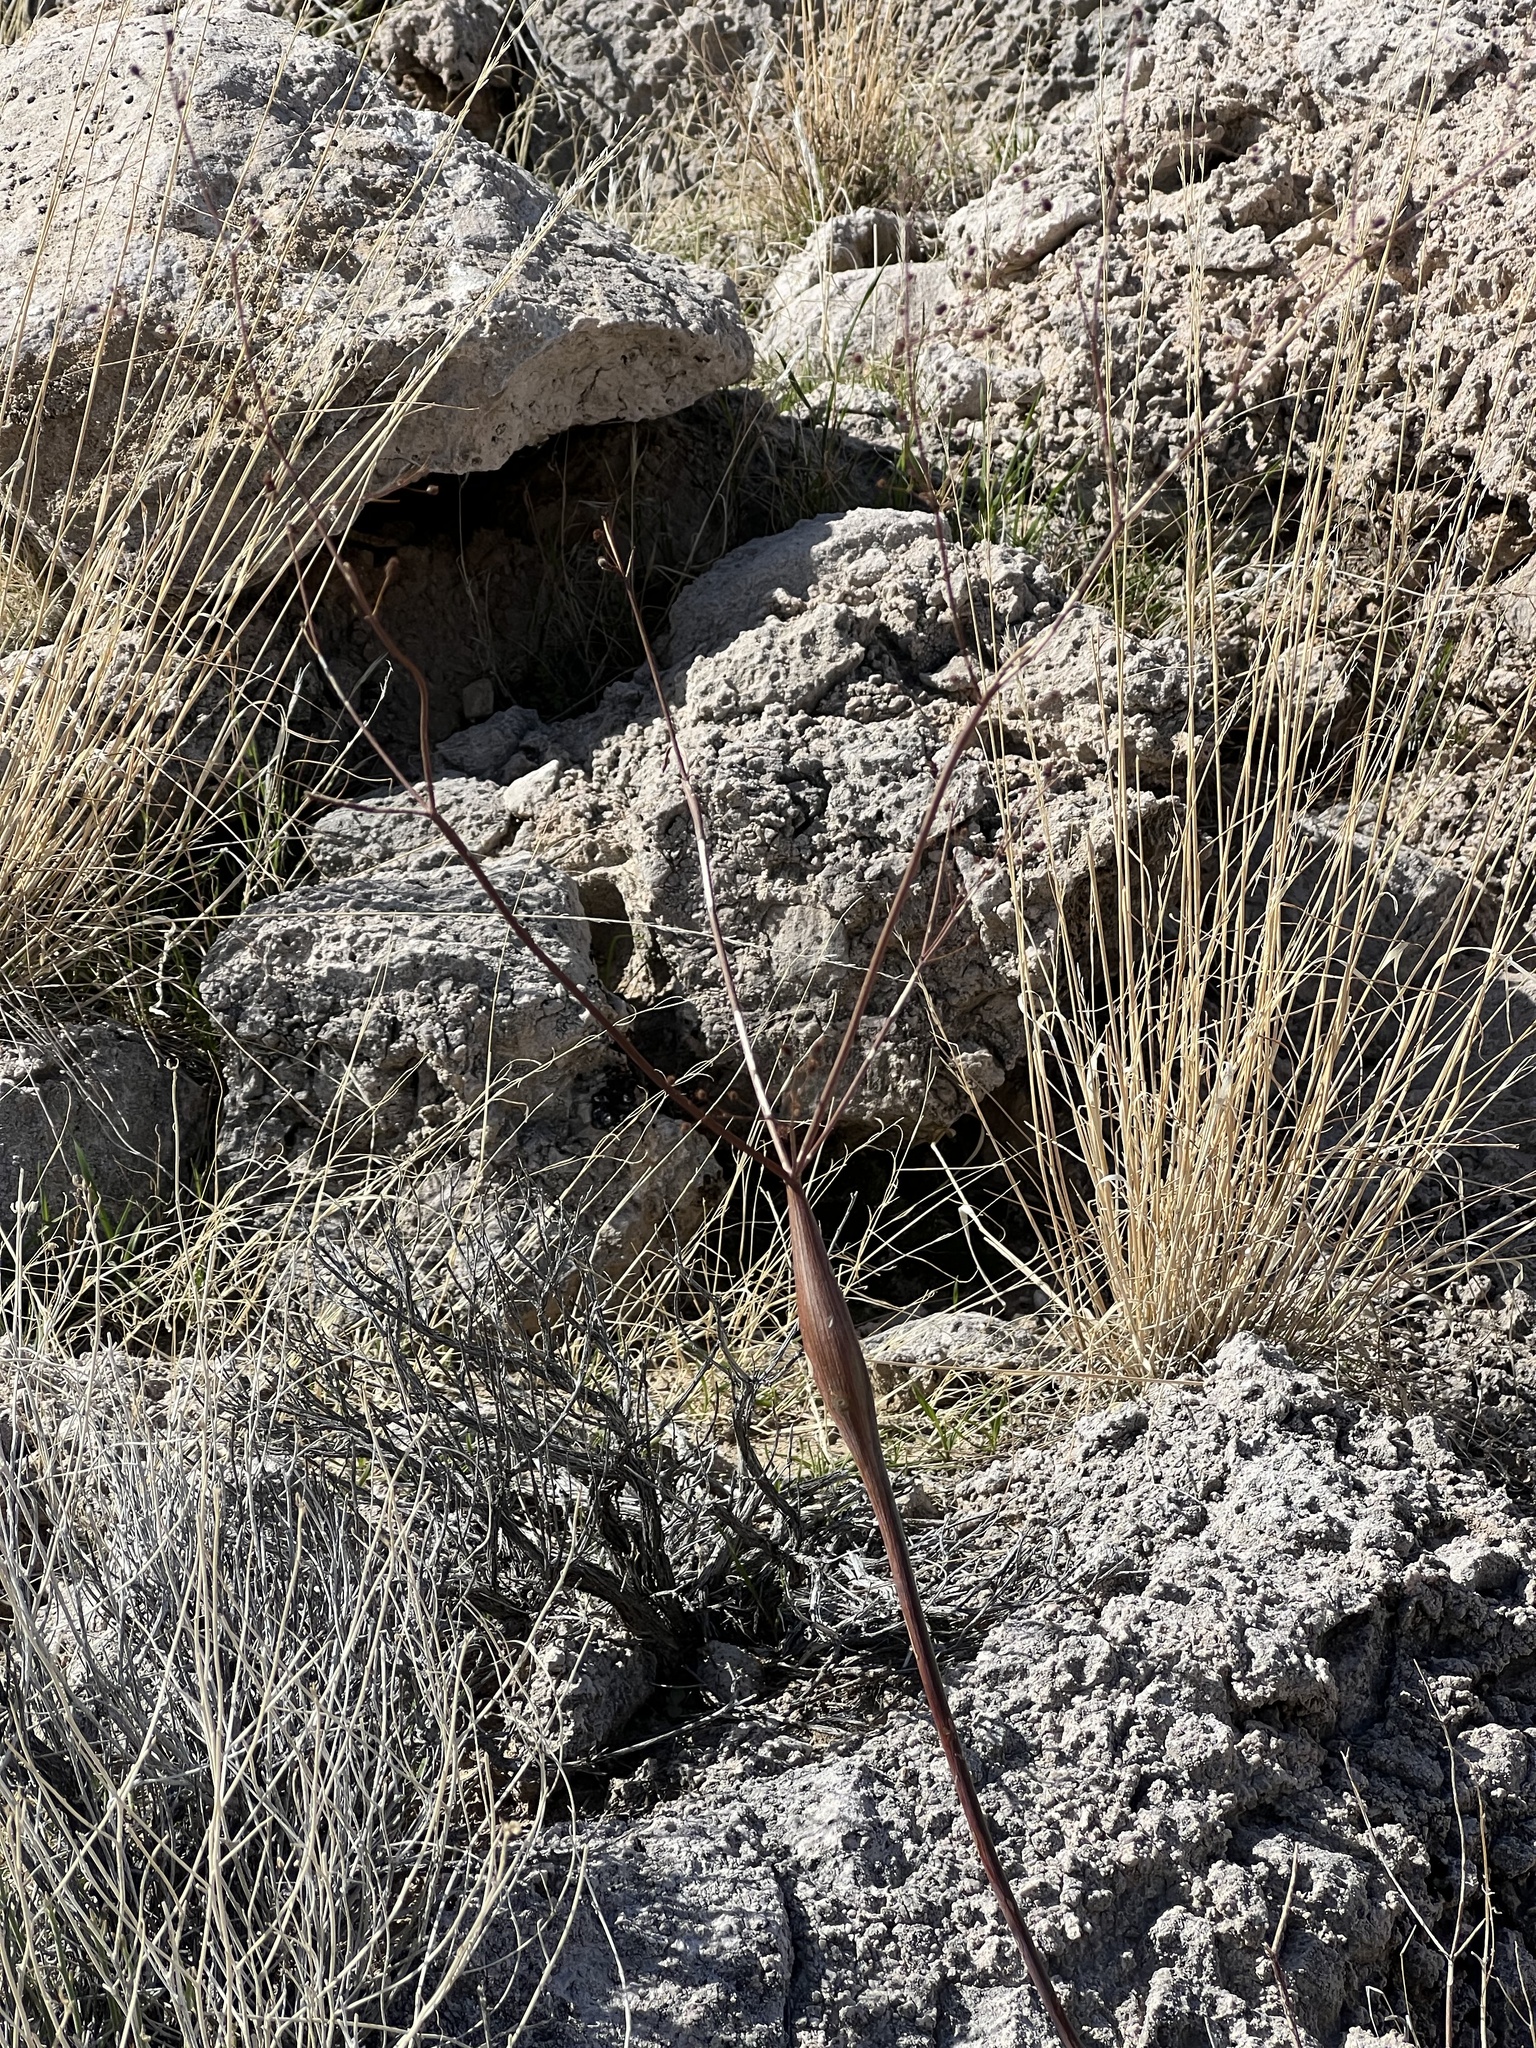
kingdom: Plantae
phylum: Tracheophyta
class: Magnoliopsida
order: Caryophyllales
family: Polygonaceae
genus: Eriogonum
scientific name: Eriogonum inflatum
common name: Desert trumpet
